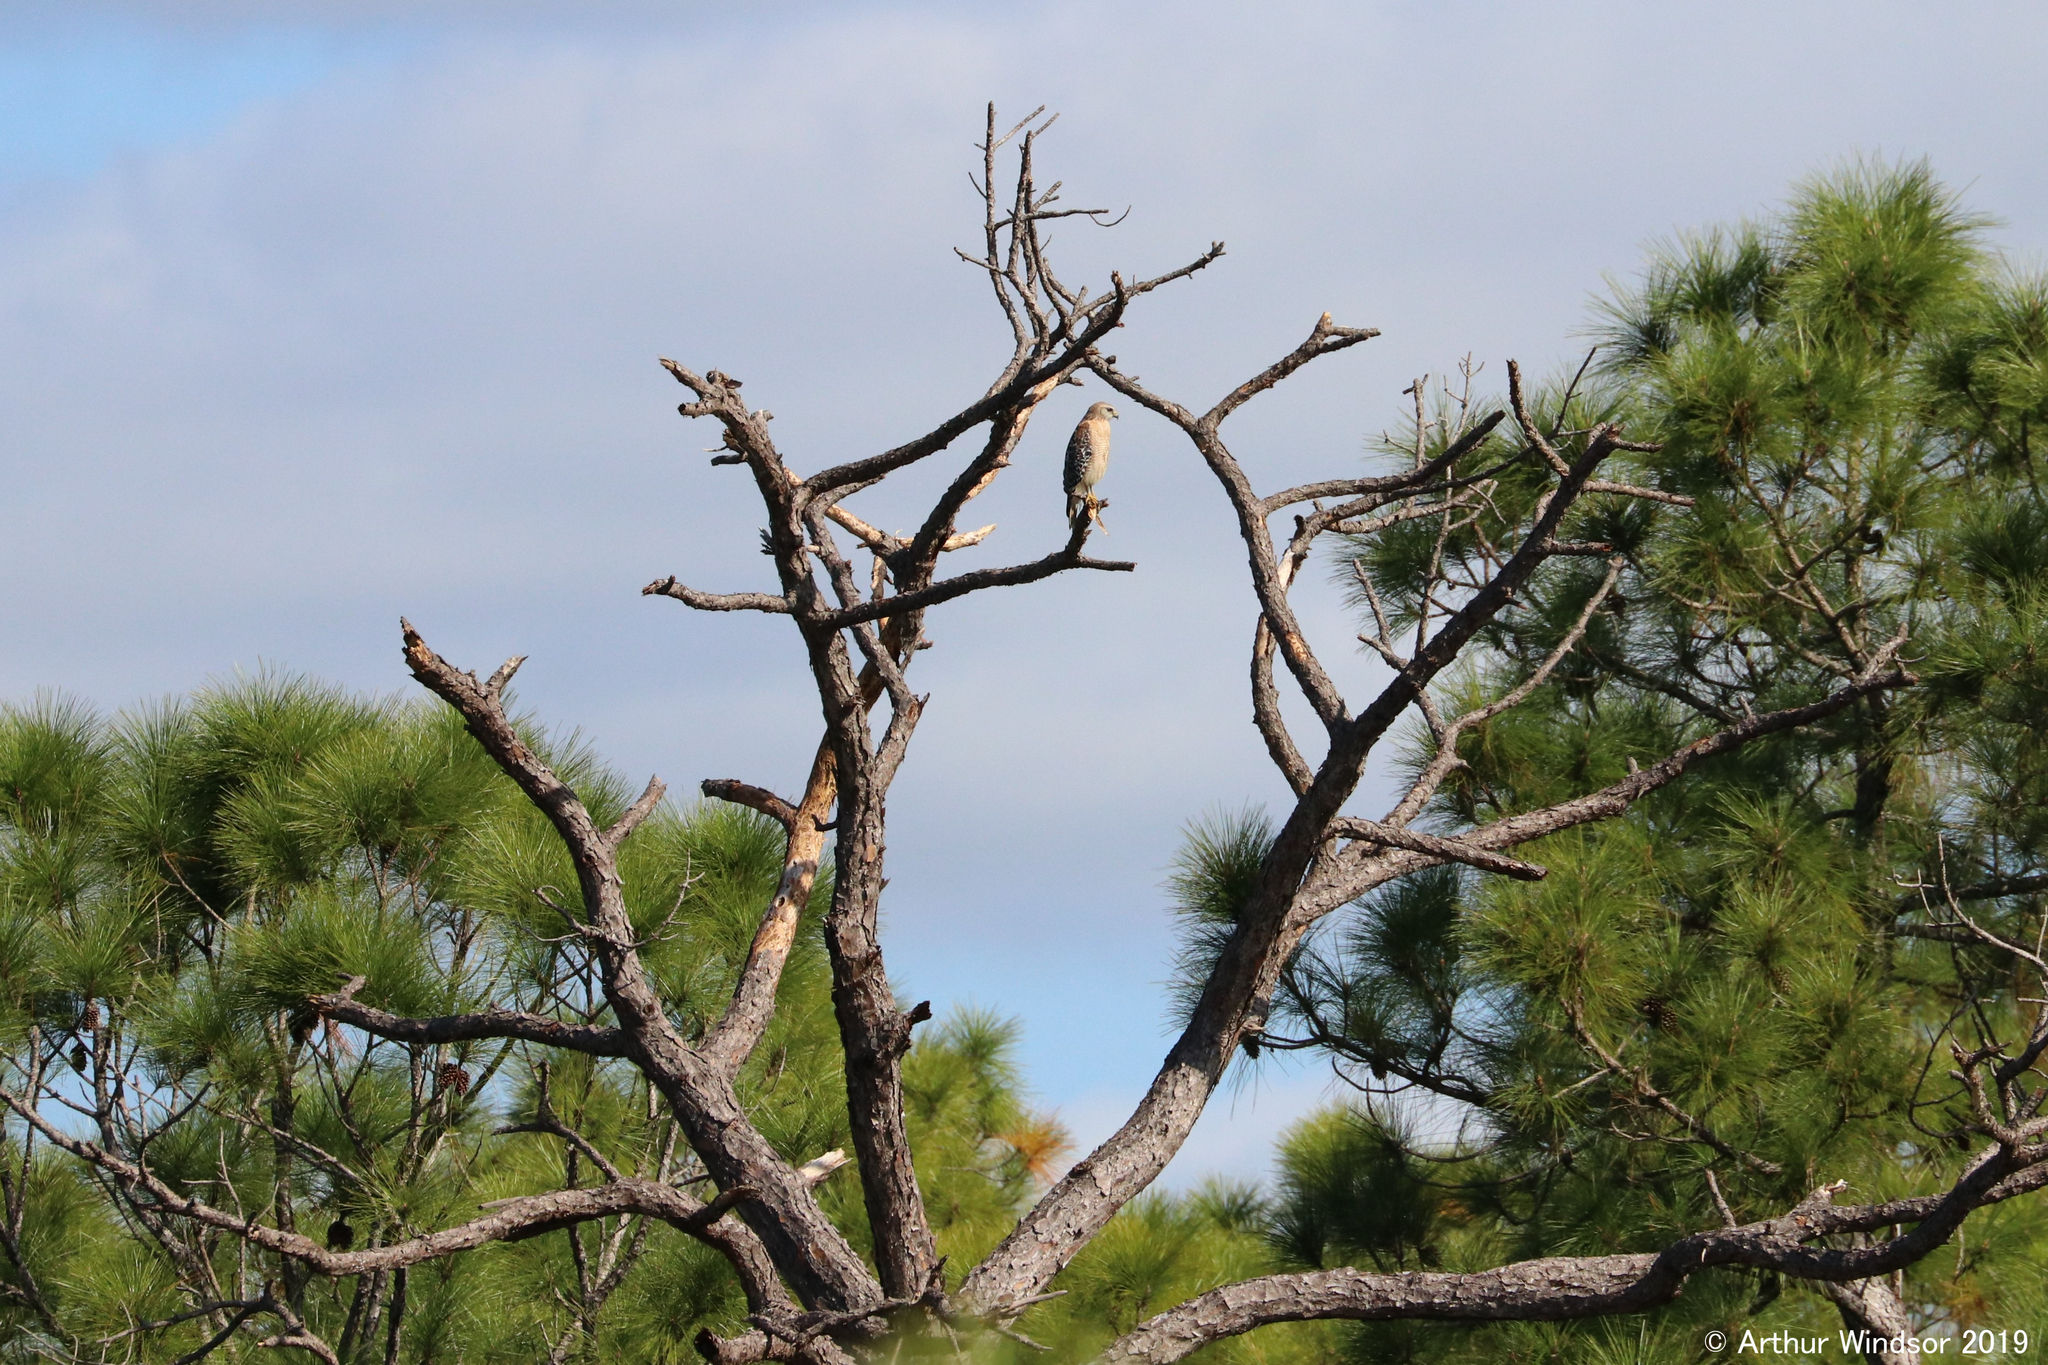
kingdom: Animalia
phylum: Chordata
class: Aves
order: Accipitriformes
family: Accipitridae
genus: Buteo
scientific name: Buteo lineatus
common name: Red-shouldered hawk
